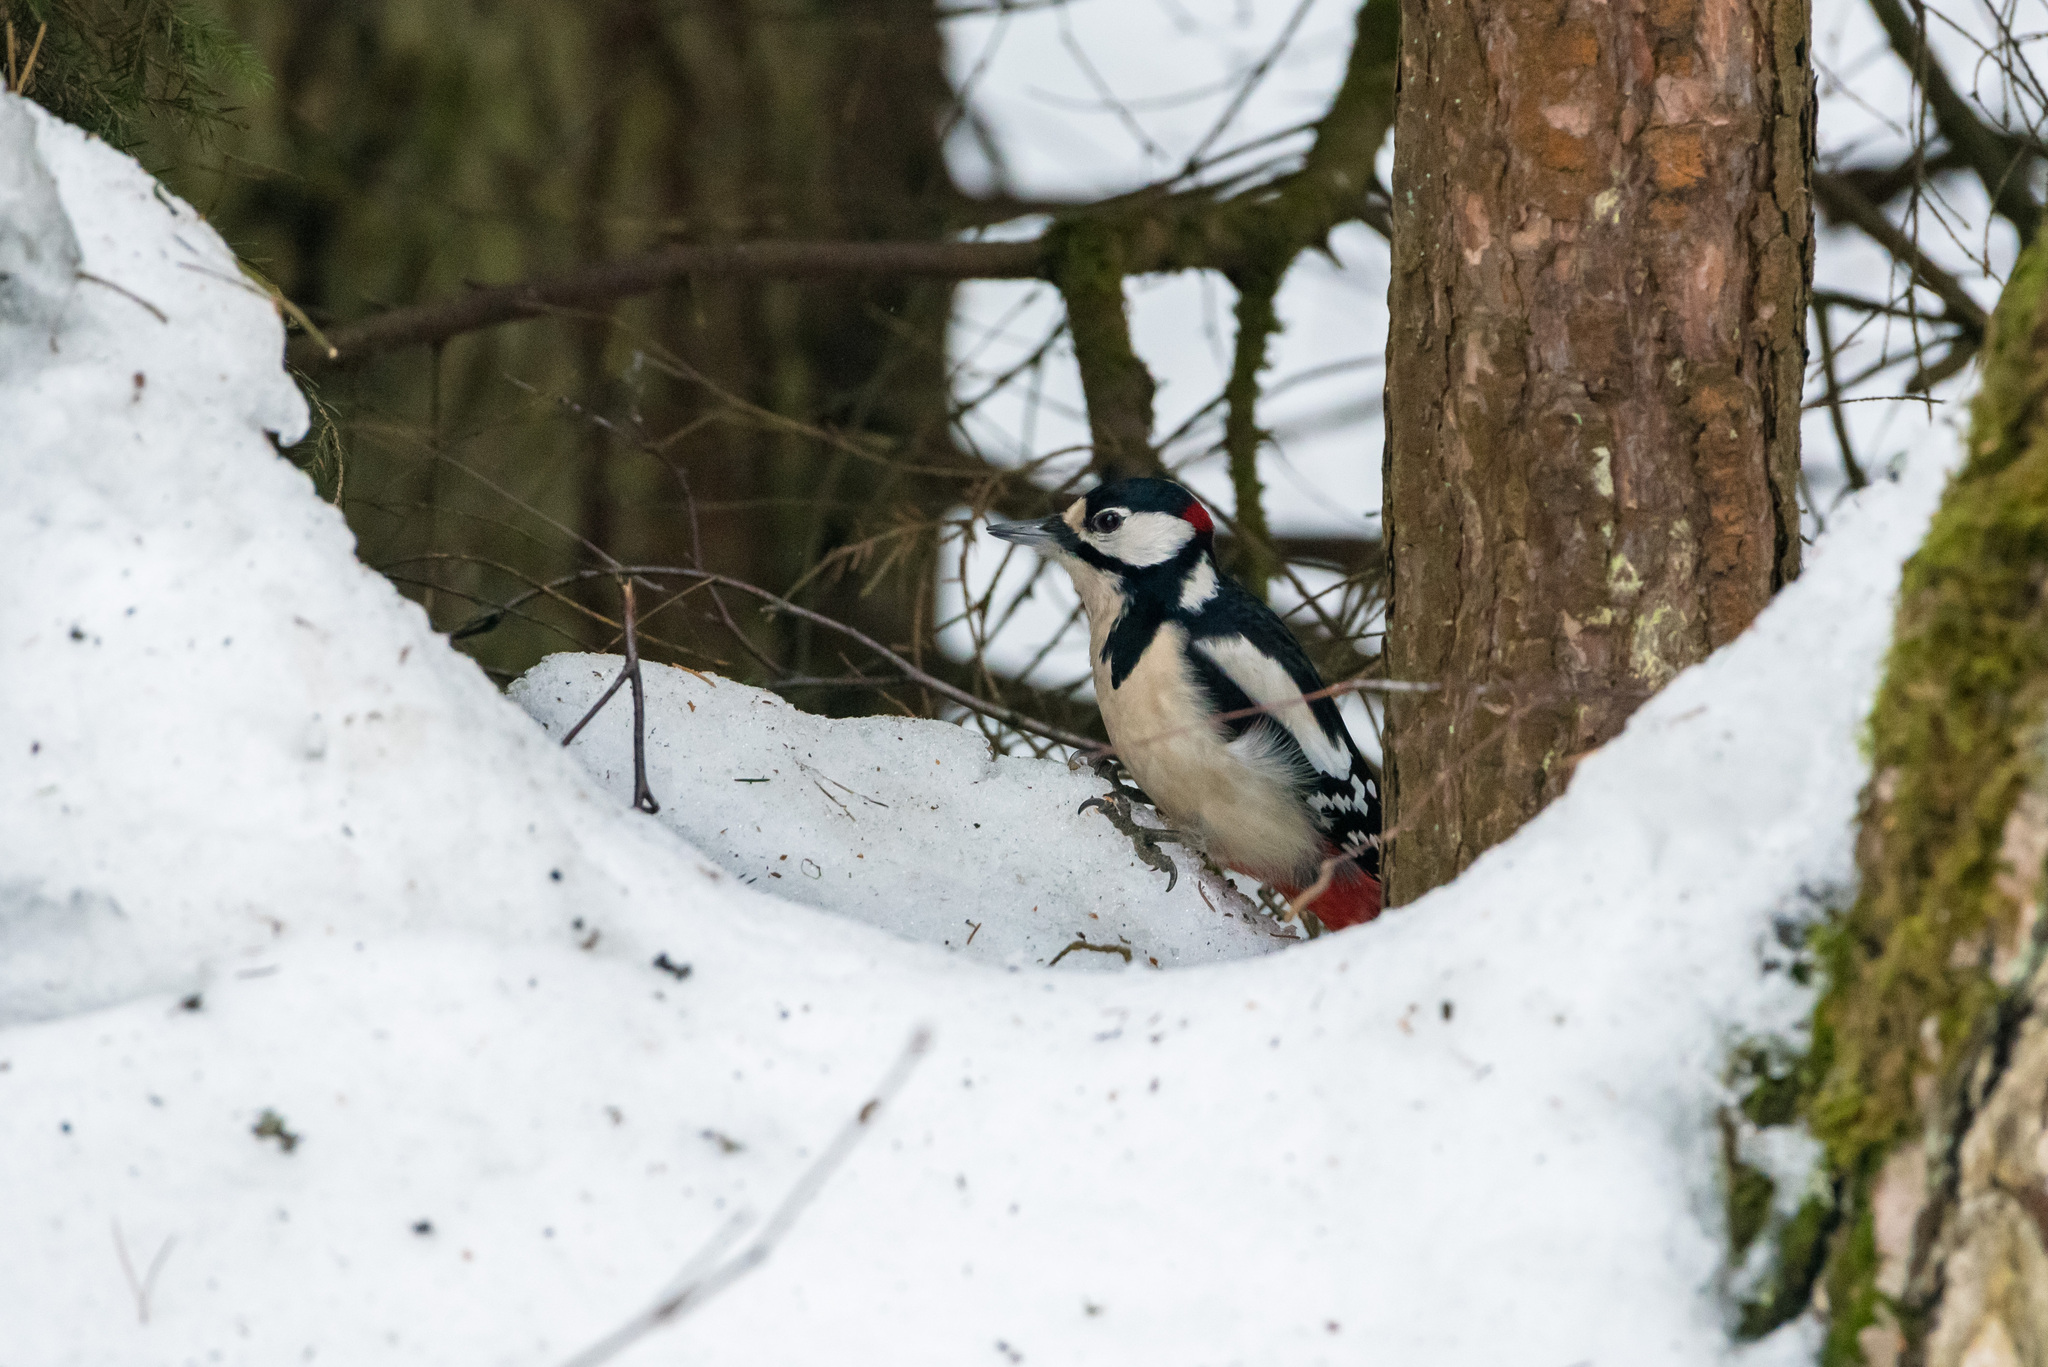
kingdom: Animalia
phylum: Chordata
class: Aves
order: Piciformes
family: Picidae
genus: Dendrocopos
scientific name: Dendrocopos major
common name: Great spotted woodpecker
